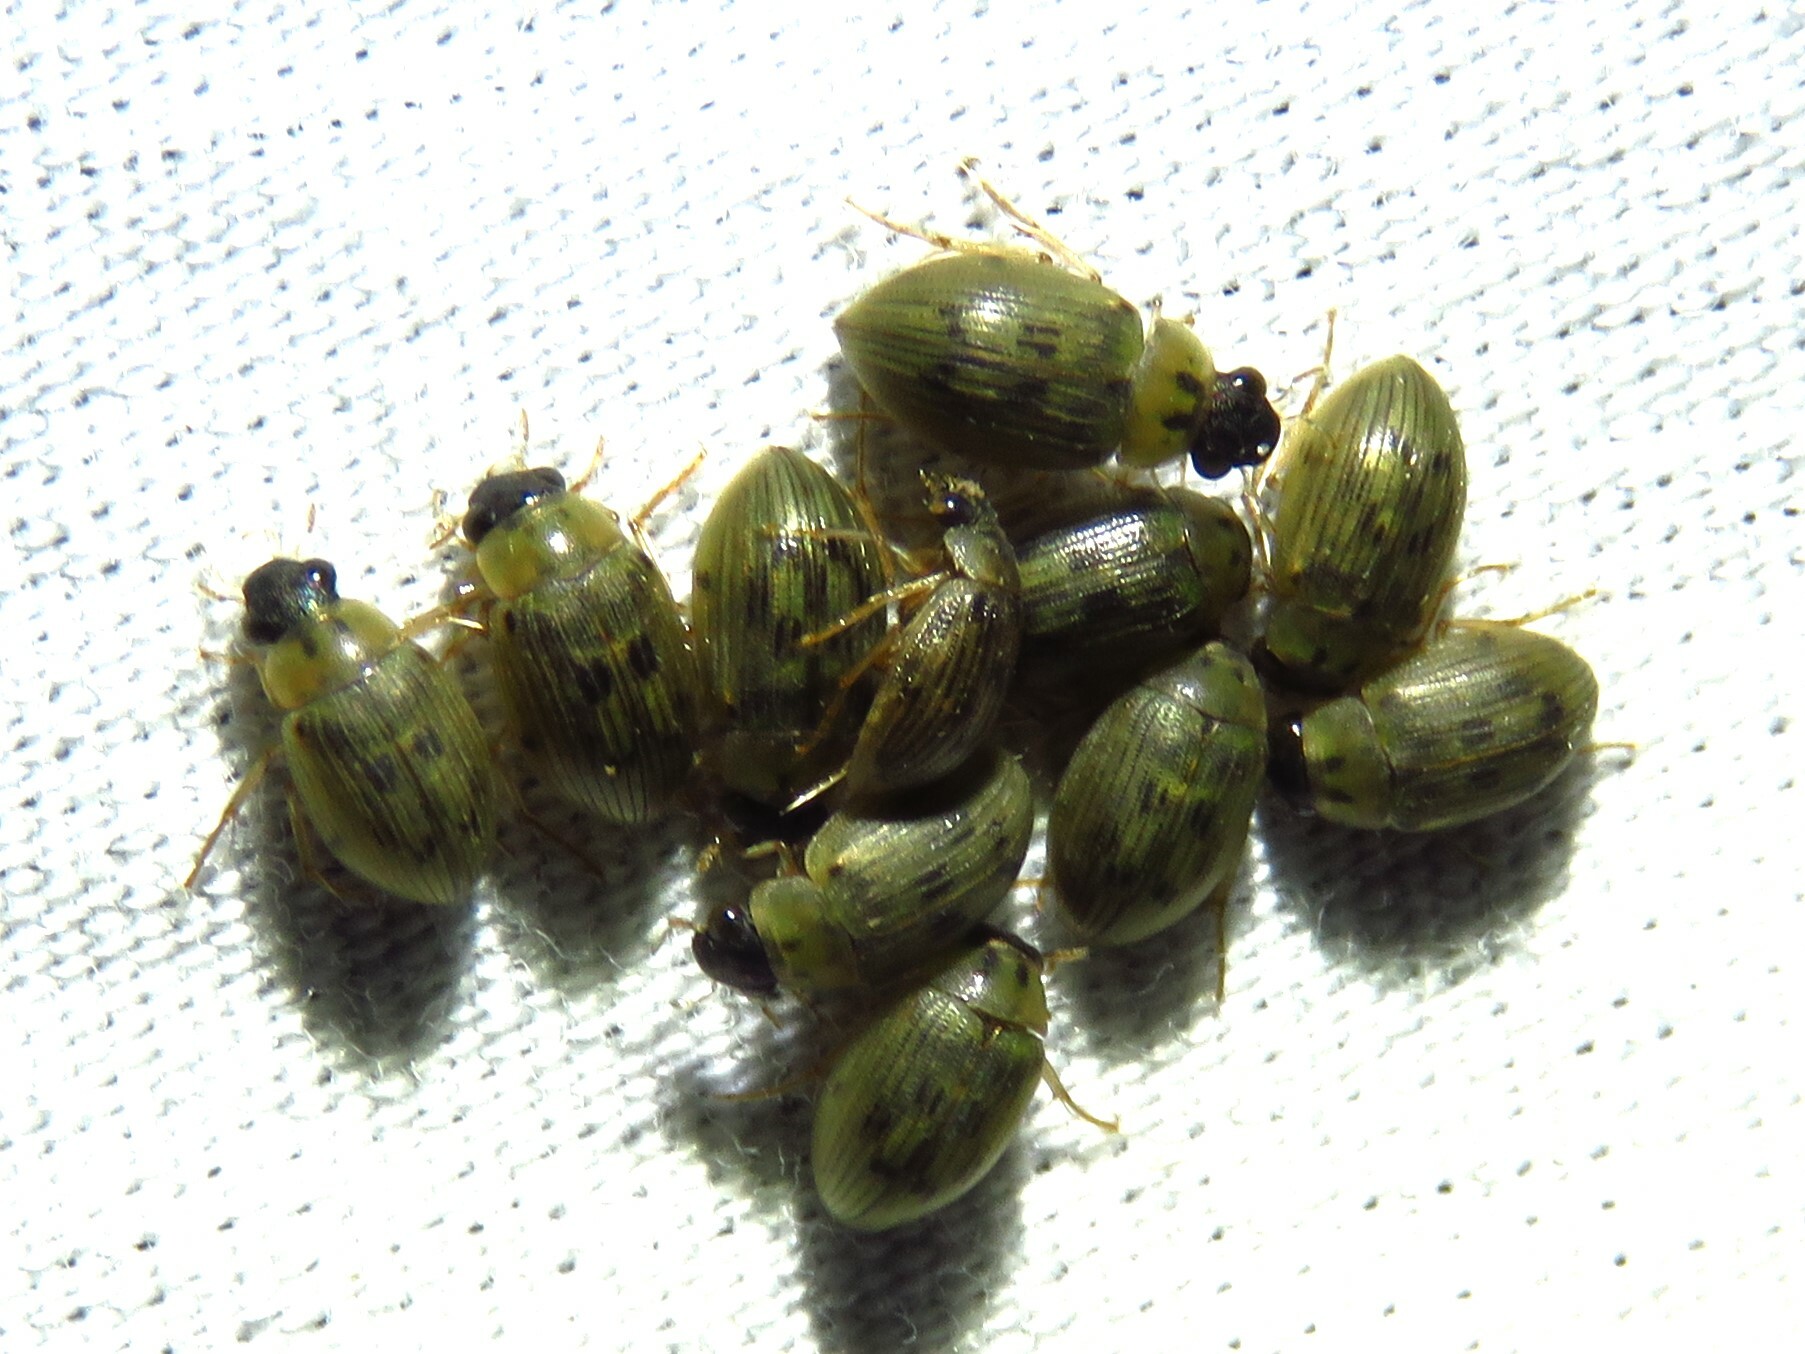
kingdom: Animalia
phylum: Arthropoda
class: Insecta
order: Coleoptera
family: Hydrophilidae
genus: Berosus
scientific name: Berosus
